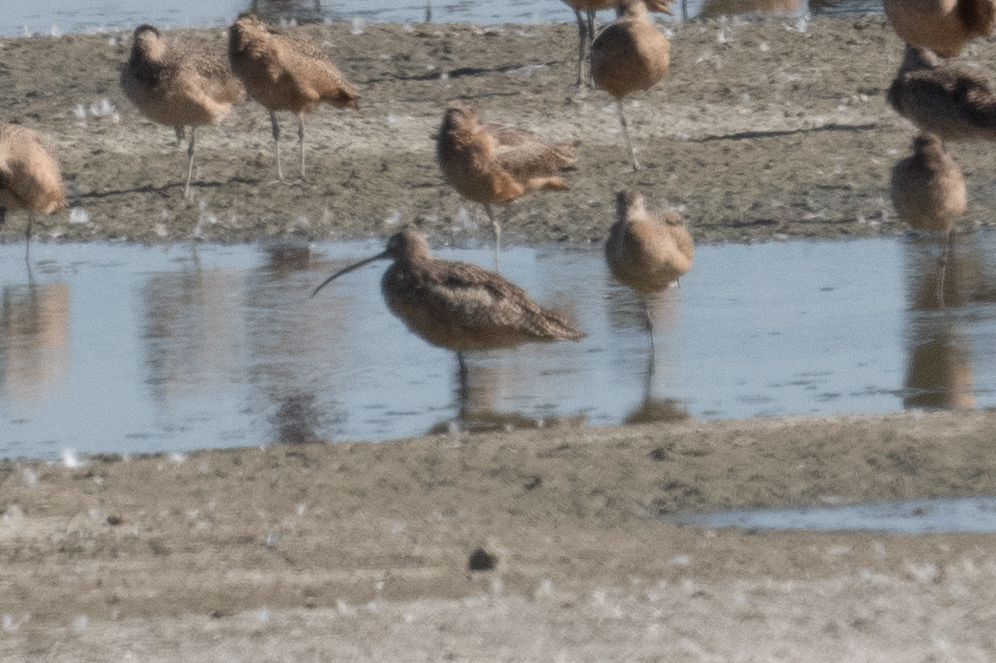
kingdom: Animalia
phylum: Chordata
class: Aves
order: Charadriiformes
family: Scolopacidae
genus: Numenius
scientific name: Numenius americanus
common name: Long-billed curlew
